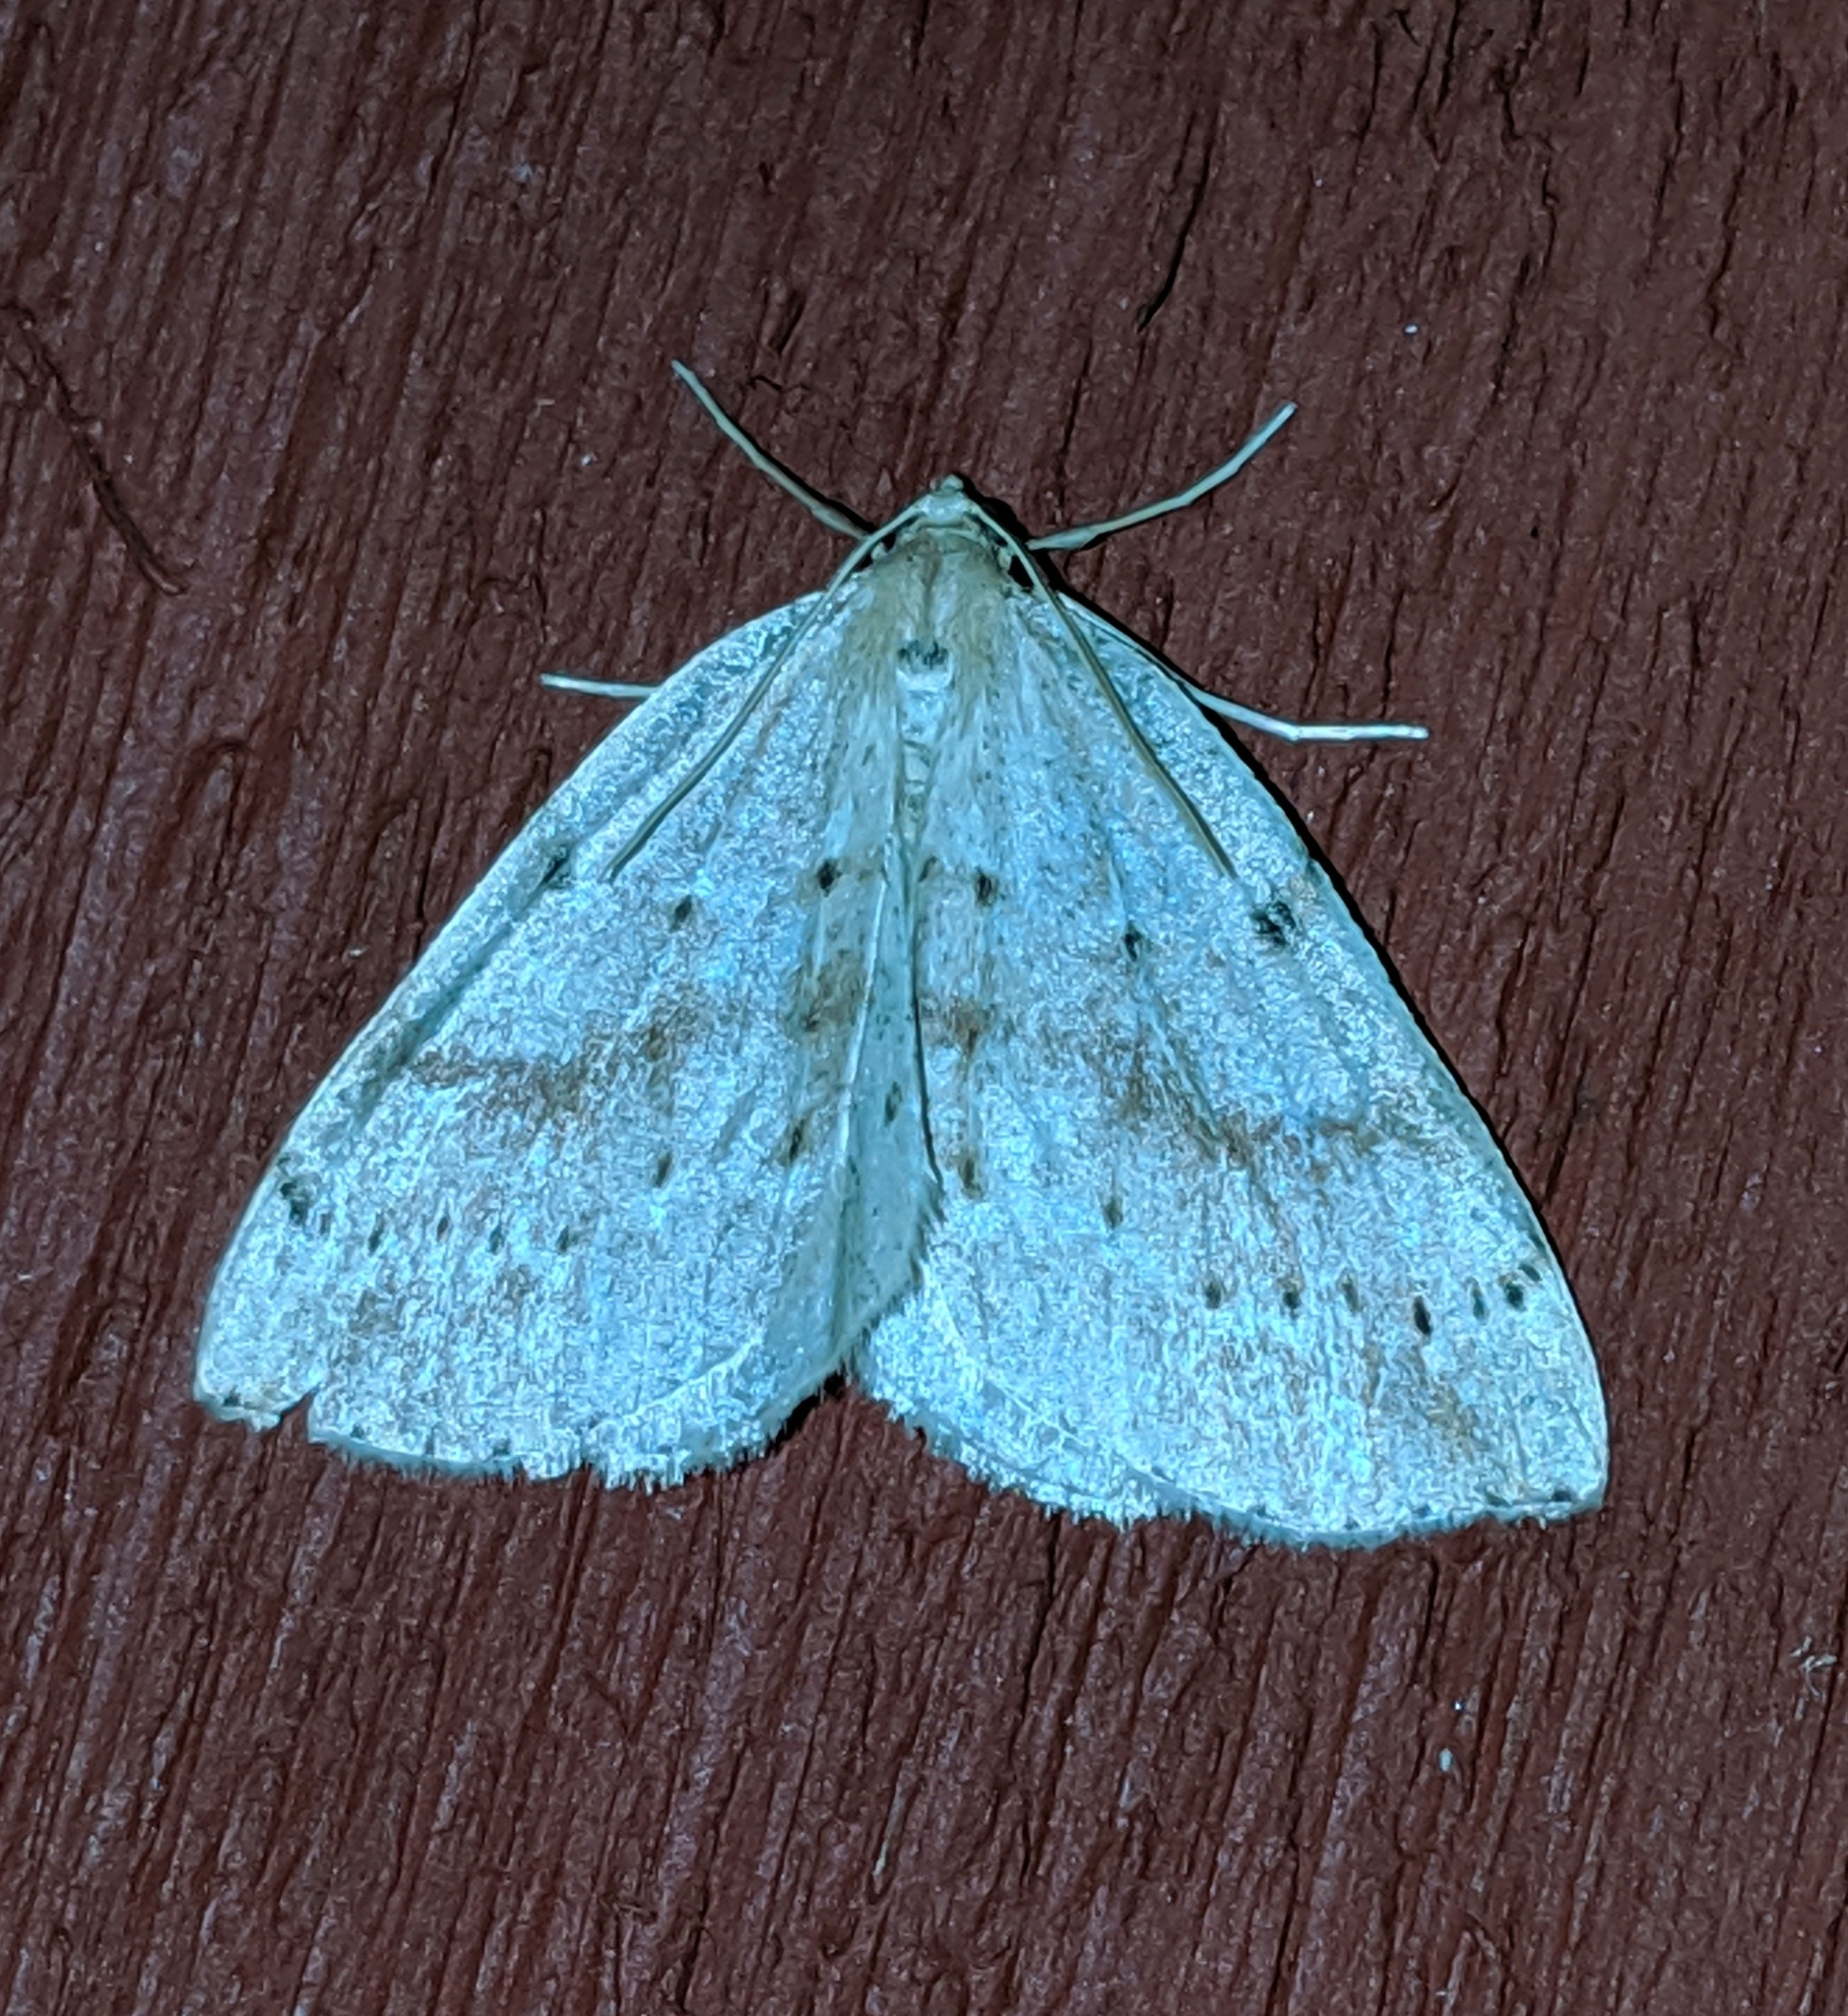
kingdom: Animalia
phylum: Arthropoda
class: Insecta
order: Lepidoptera
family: Geometridae
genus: Thallophaga
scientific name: Thallophaga hyperborea
